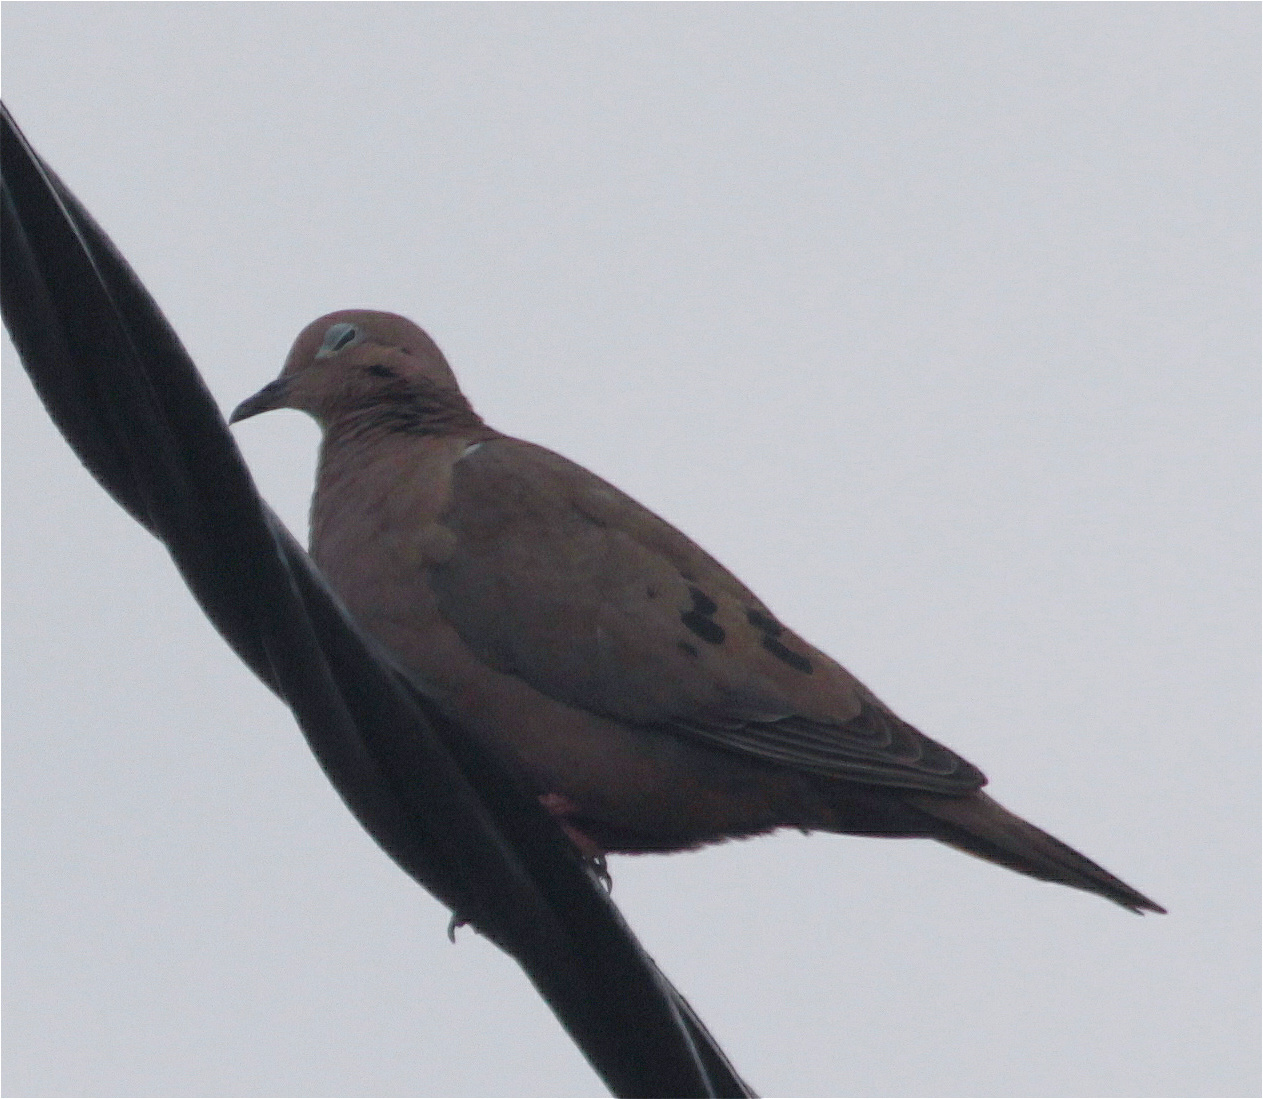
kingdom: Animalia
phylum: Chordata
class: Aves
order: Columbiformes
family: Columbidae
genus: Zenaida
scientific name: Zenaida auriculata
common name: Eared dove
